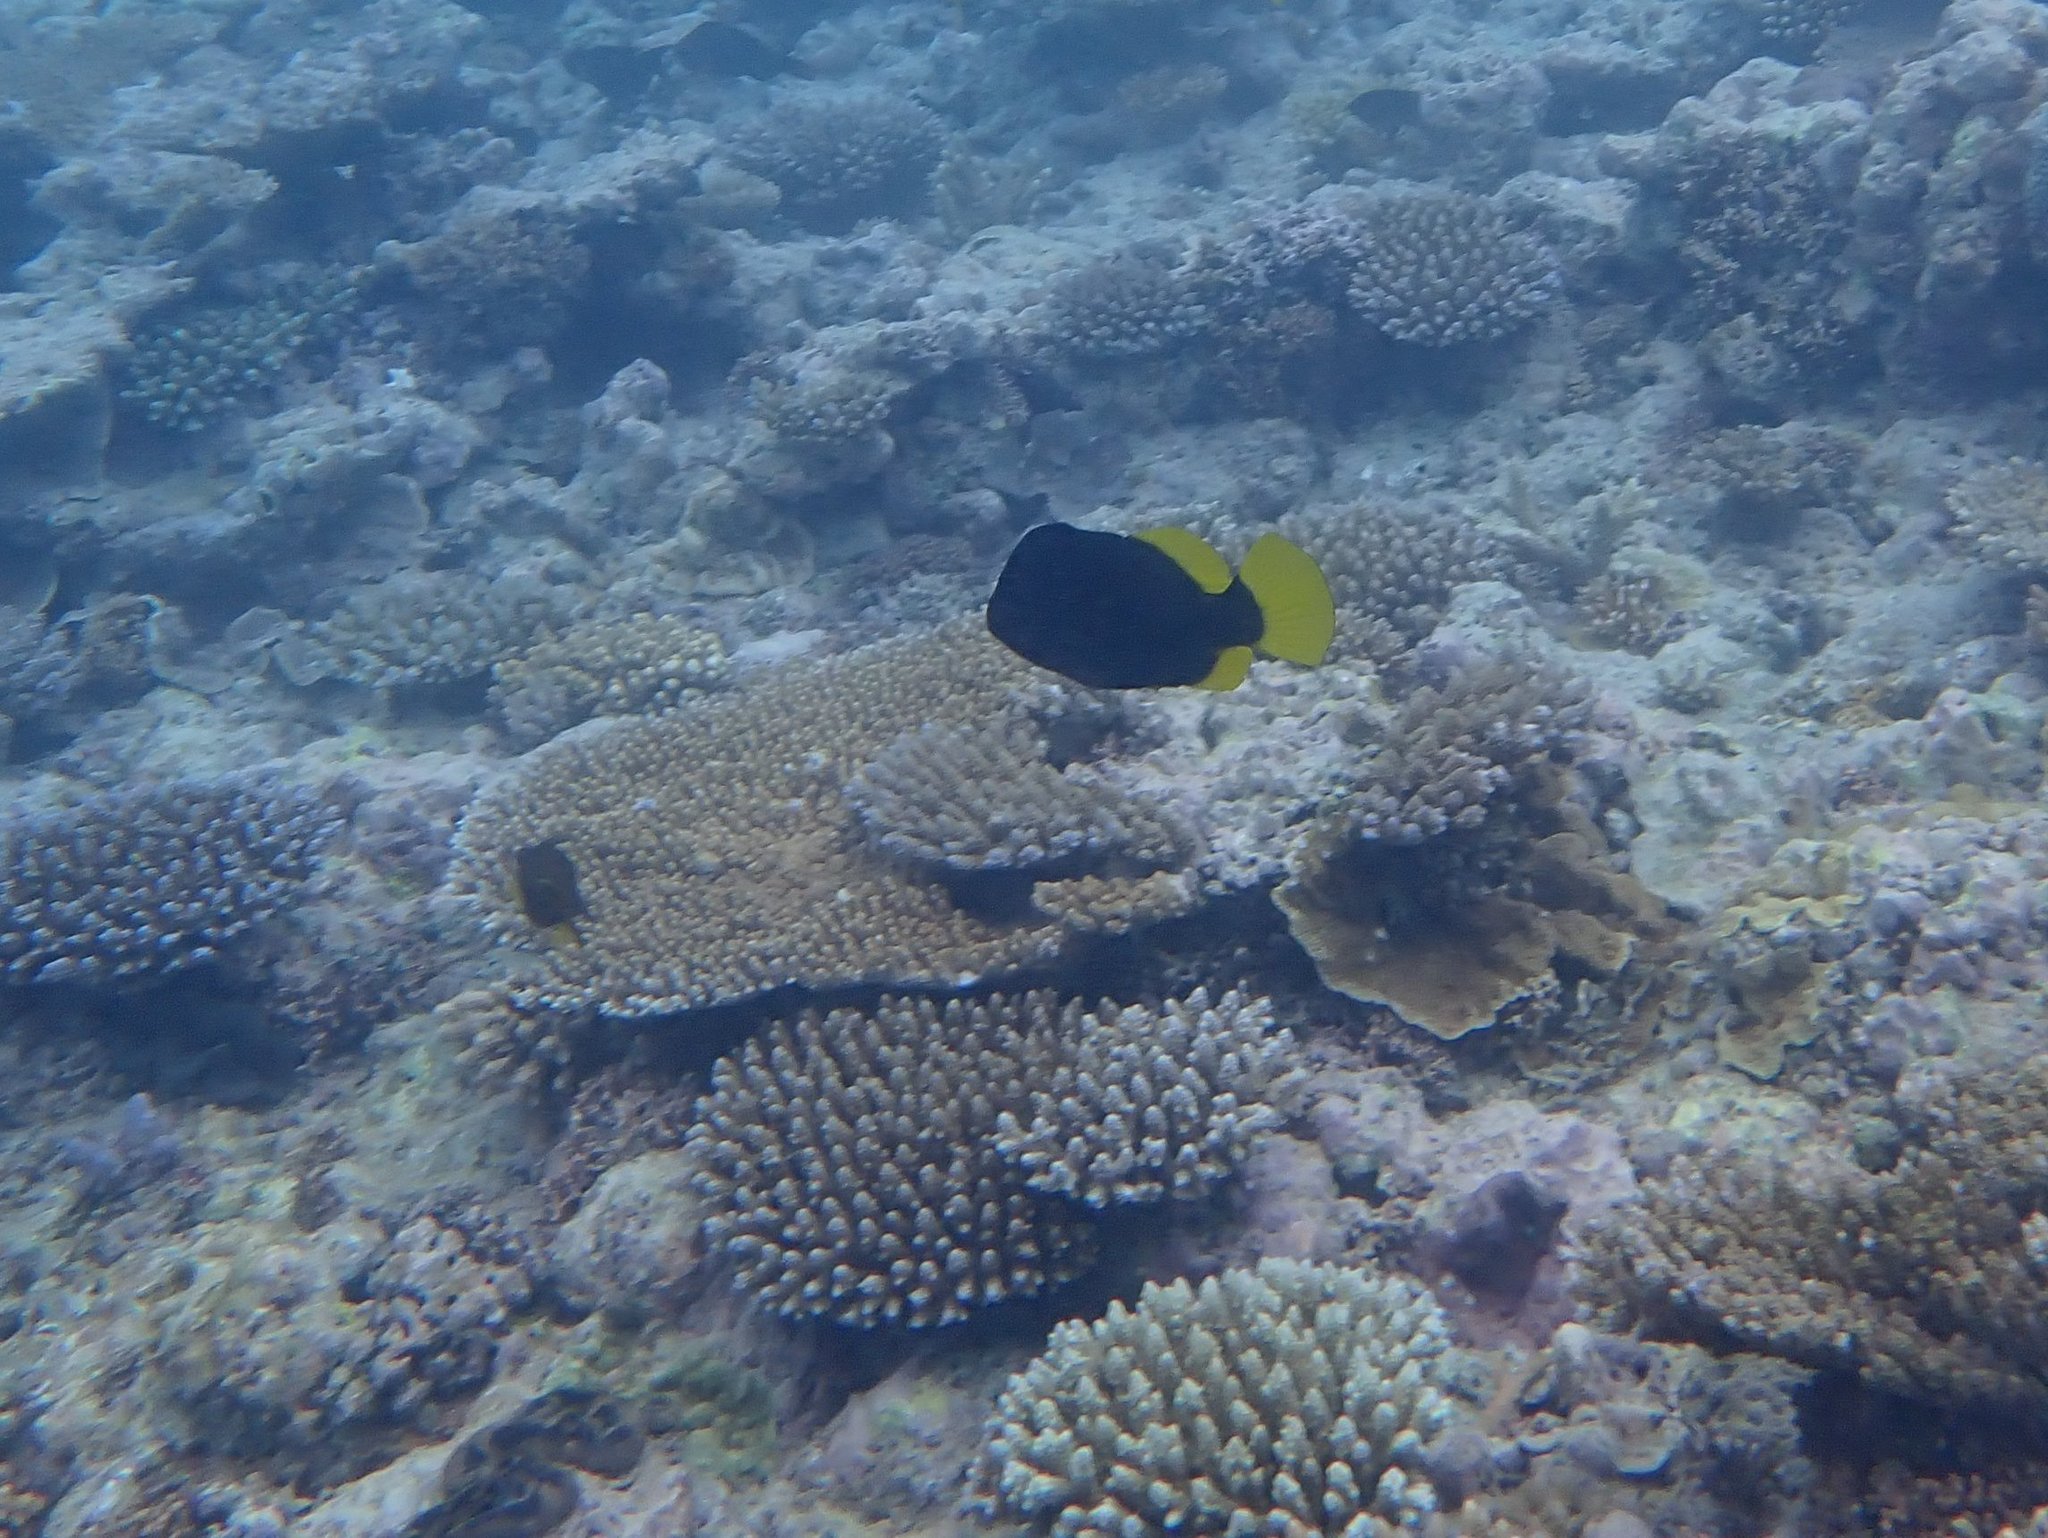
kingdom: Animalia
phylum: Chordata
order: Perciformes
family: Serranidae
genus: Diploprion
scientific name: Diploprion bifasciatum
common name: Barred soapfish
